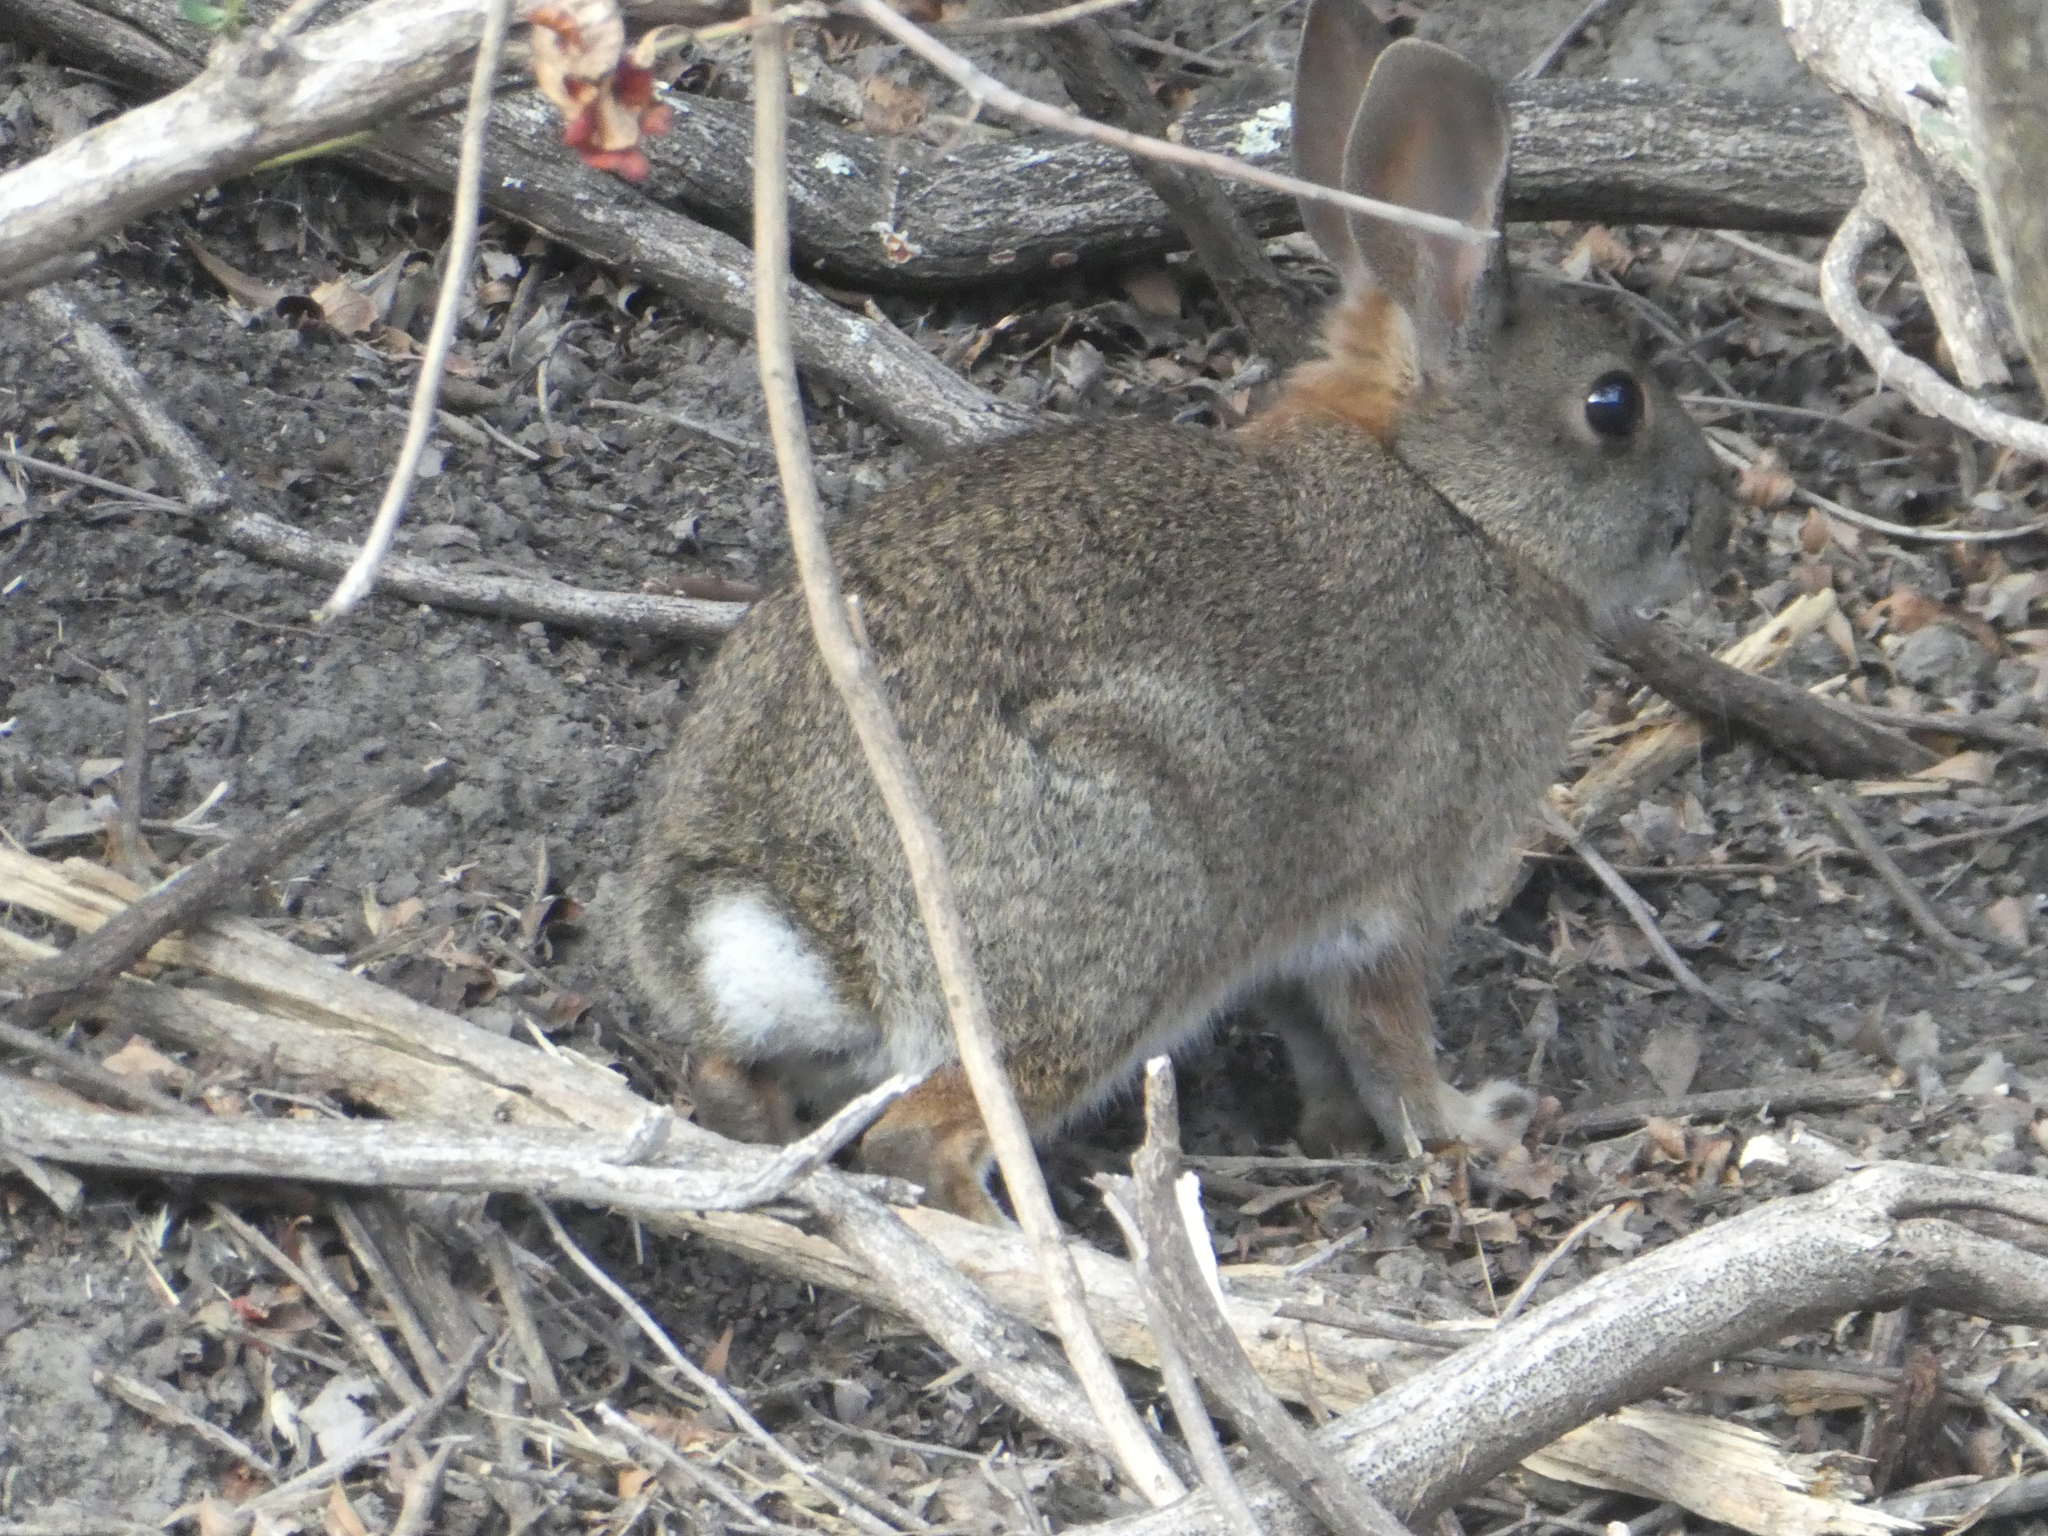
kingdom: Animalia
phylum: Chordata
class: Mammalia
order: Lagomorpha
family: Leporidae
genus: Sylvilagus
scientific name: Sylvilagus bachmani
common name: Brush rabbit
